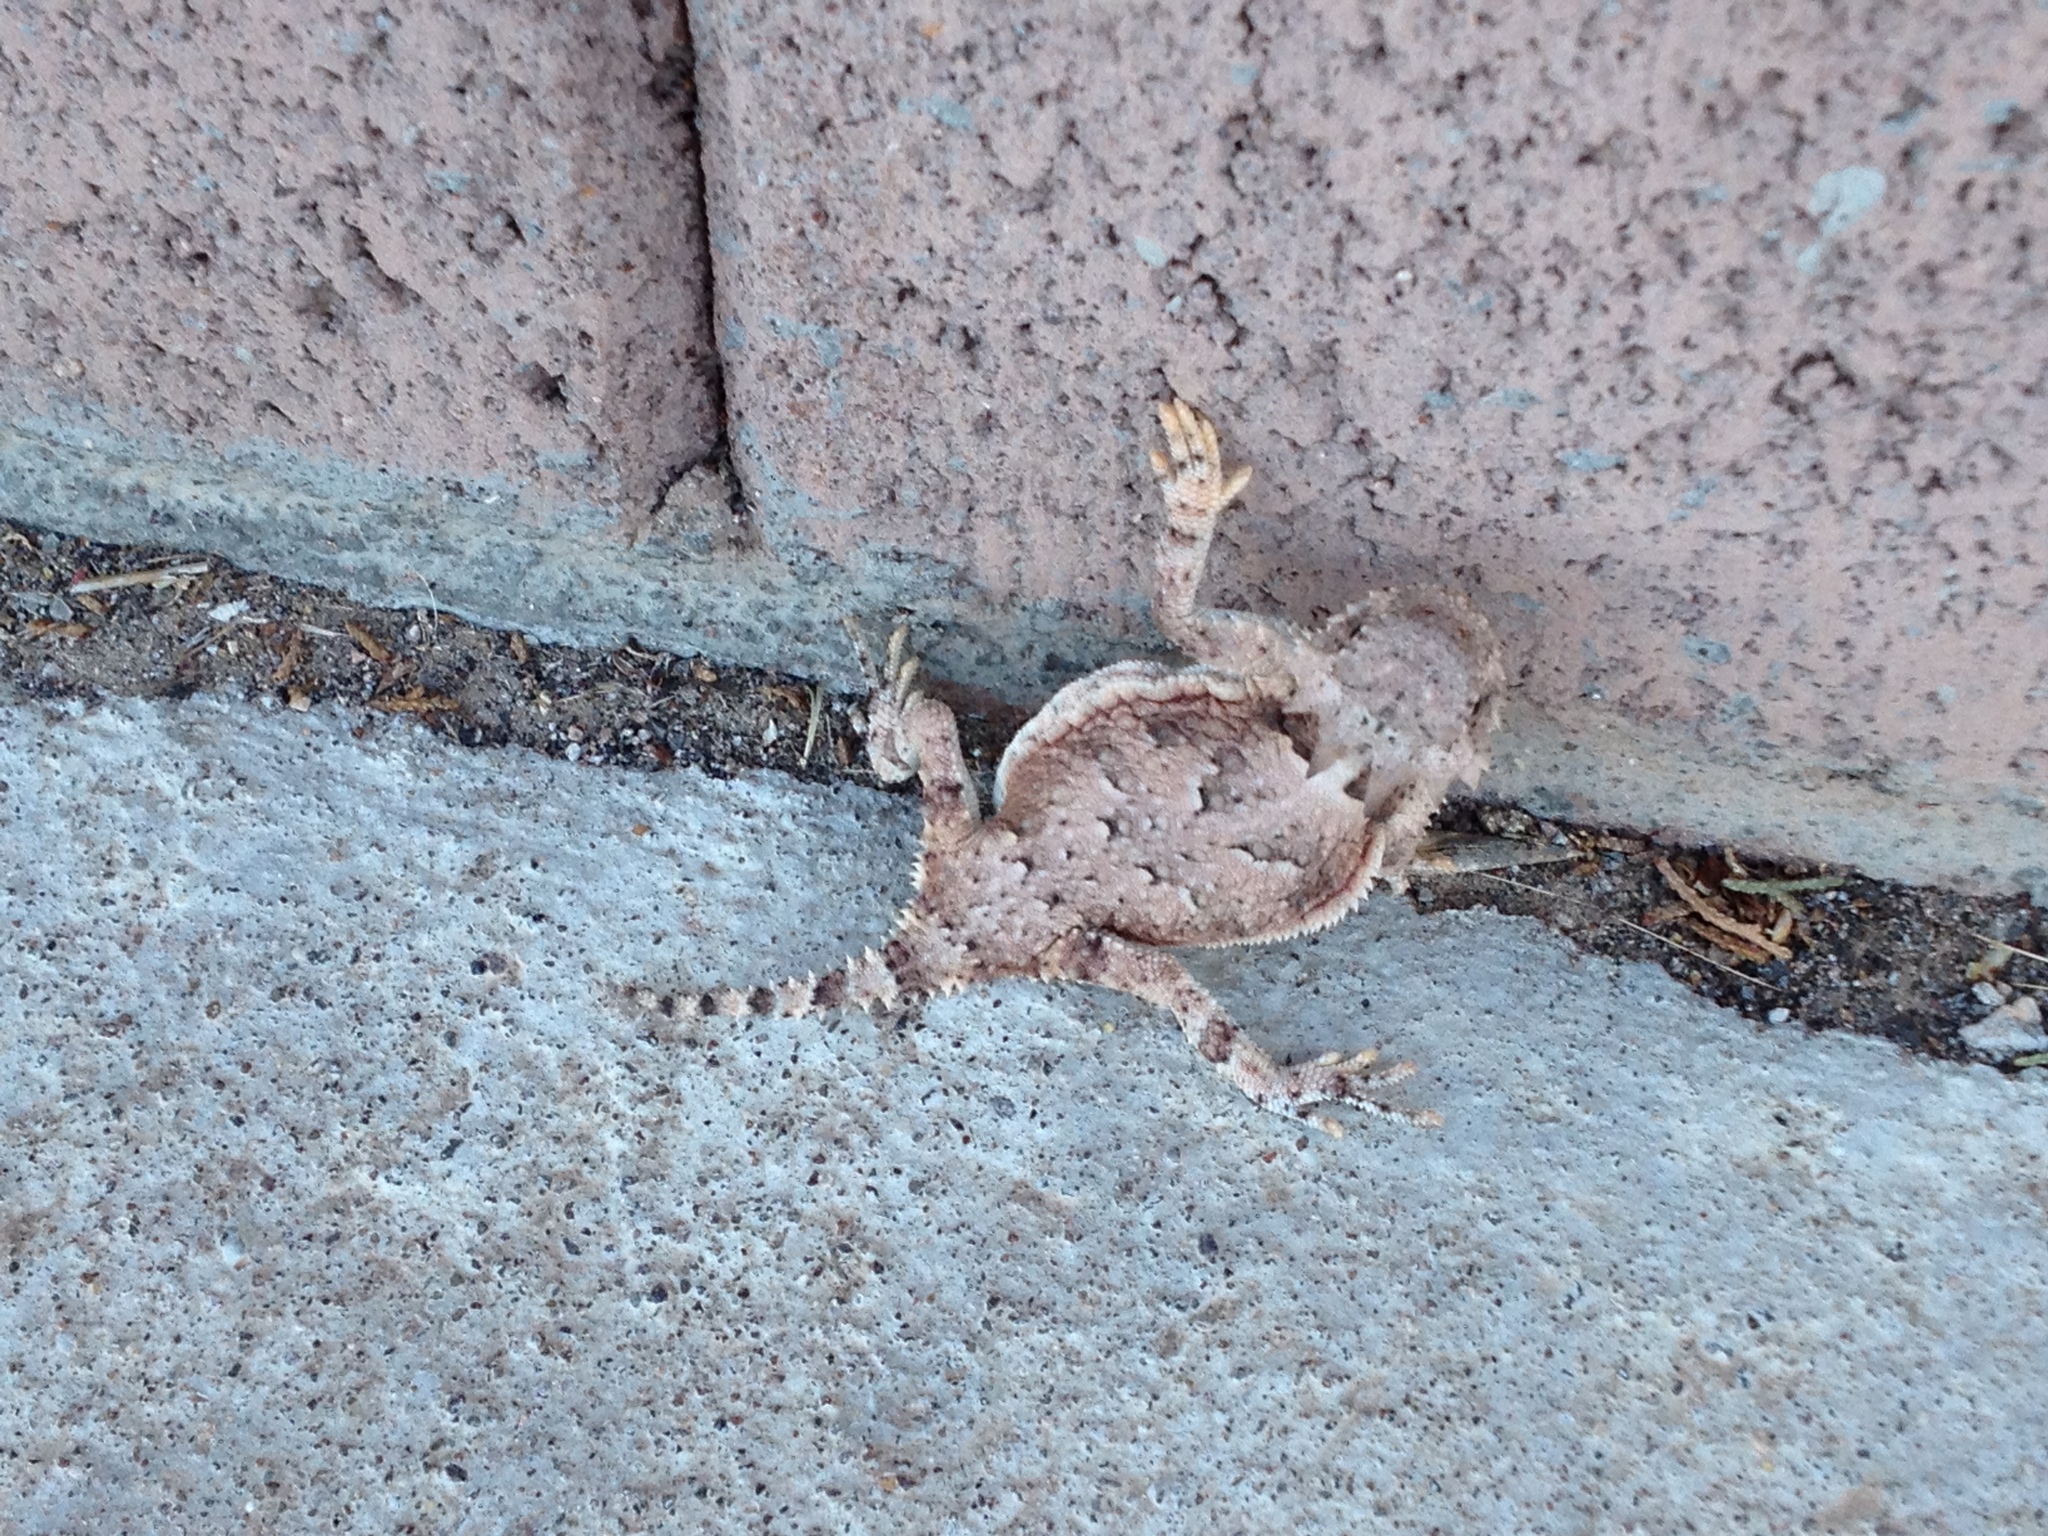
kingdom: Animalia
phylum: Chordata
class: Squamata
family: Phrynosomatidae
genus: Phrynosoma
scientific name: Phrynosoma platyrhinos
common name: Desert horned lizard
